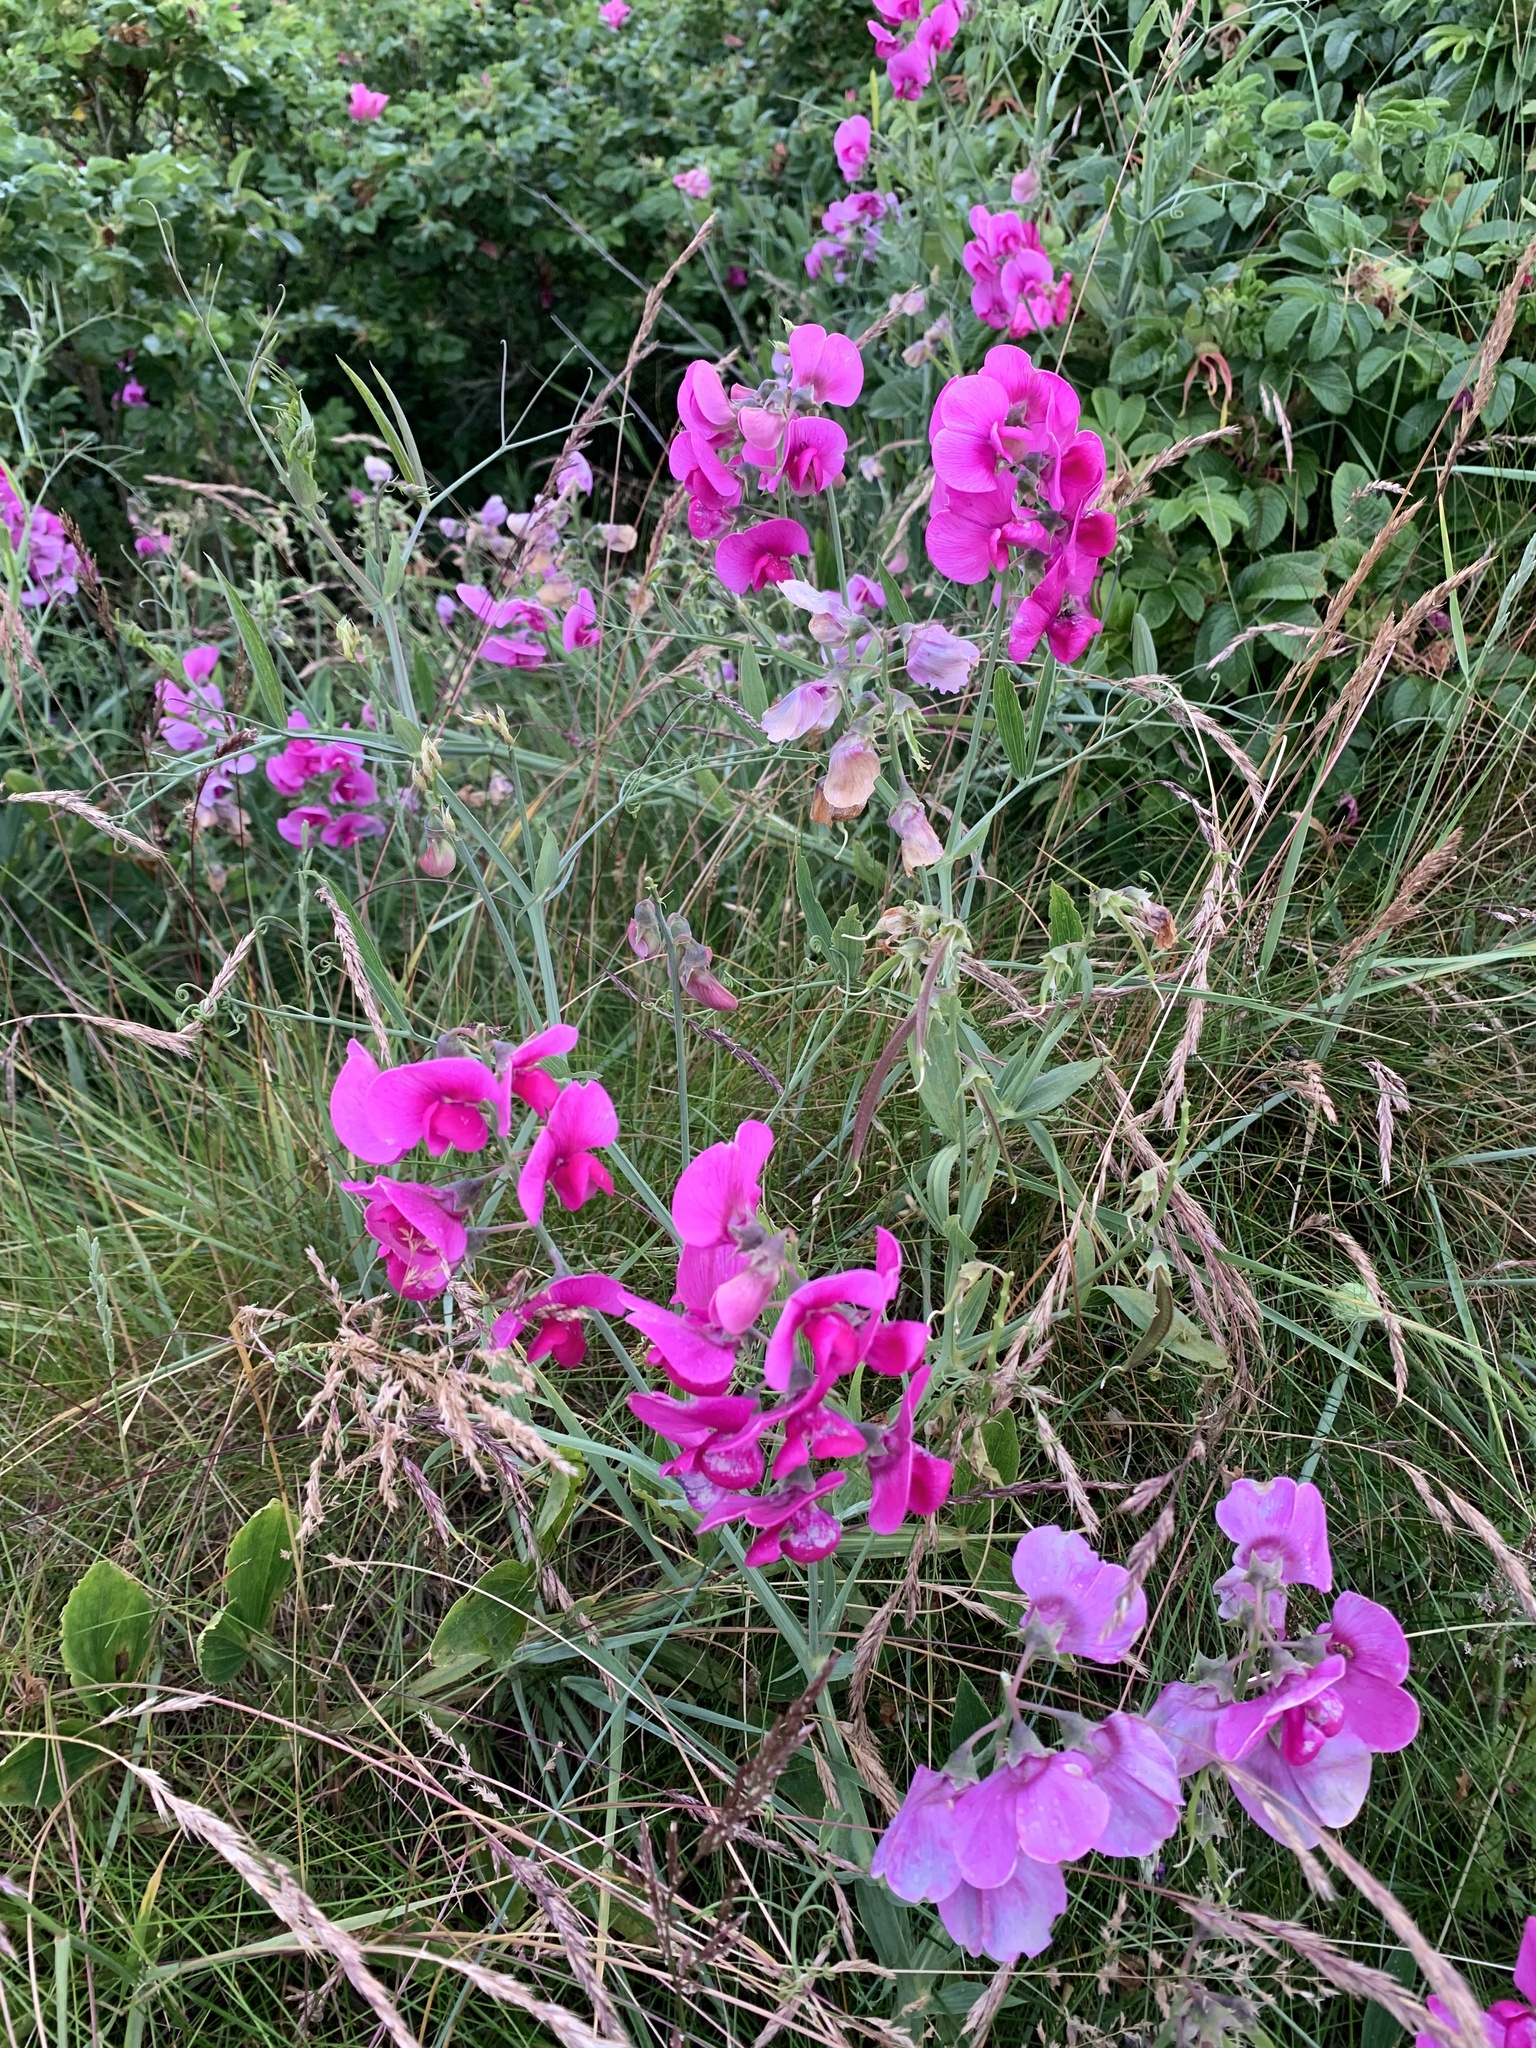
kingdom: Plantae
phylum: Tracheophyta
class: Magnoliopsida
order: Fabales
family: Fabaceae
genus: Lathyrus
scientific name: Lathyrus latifolius
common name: Perennial pea
